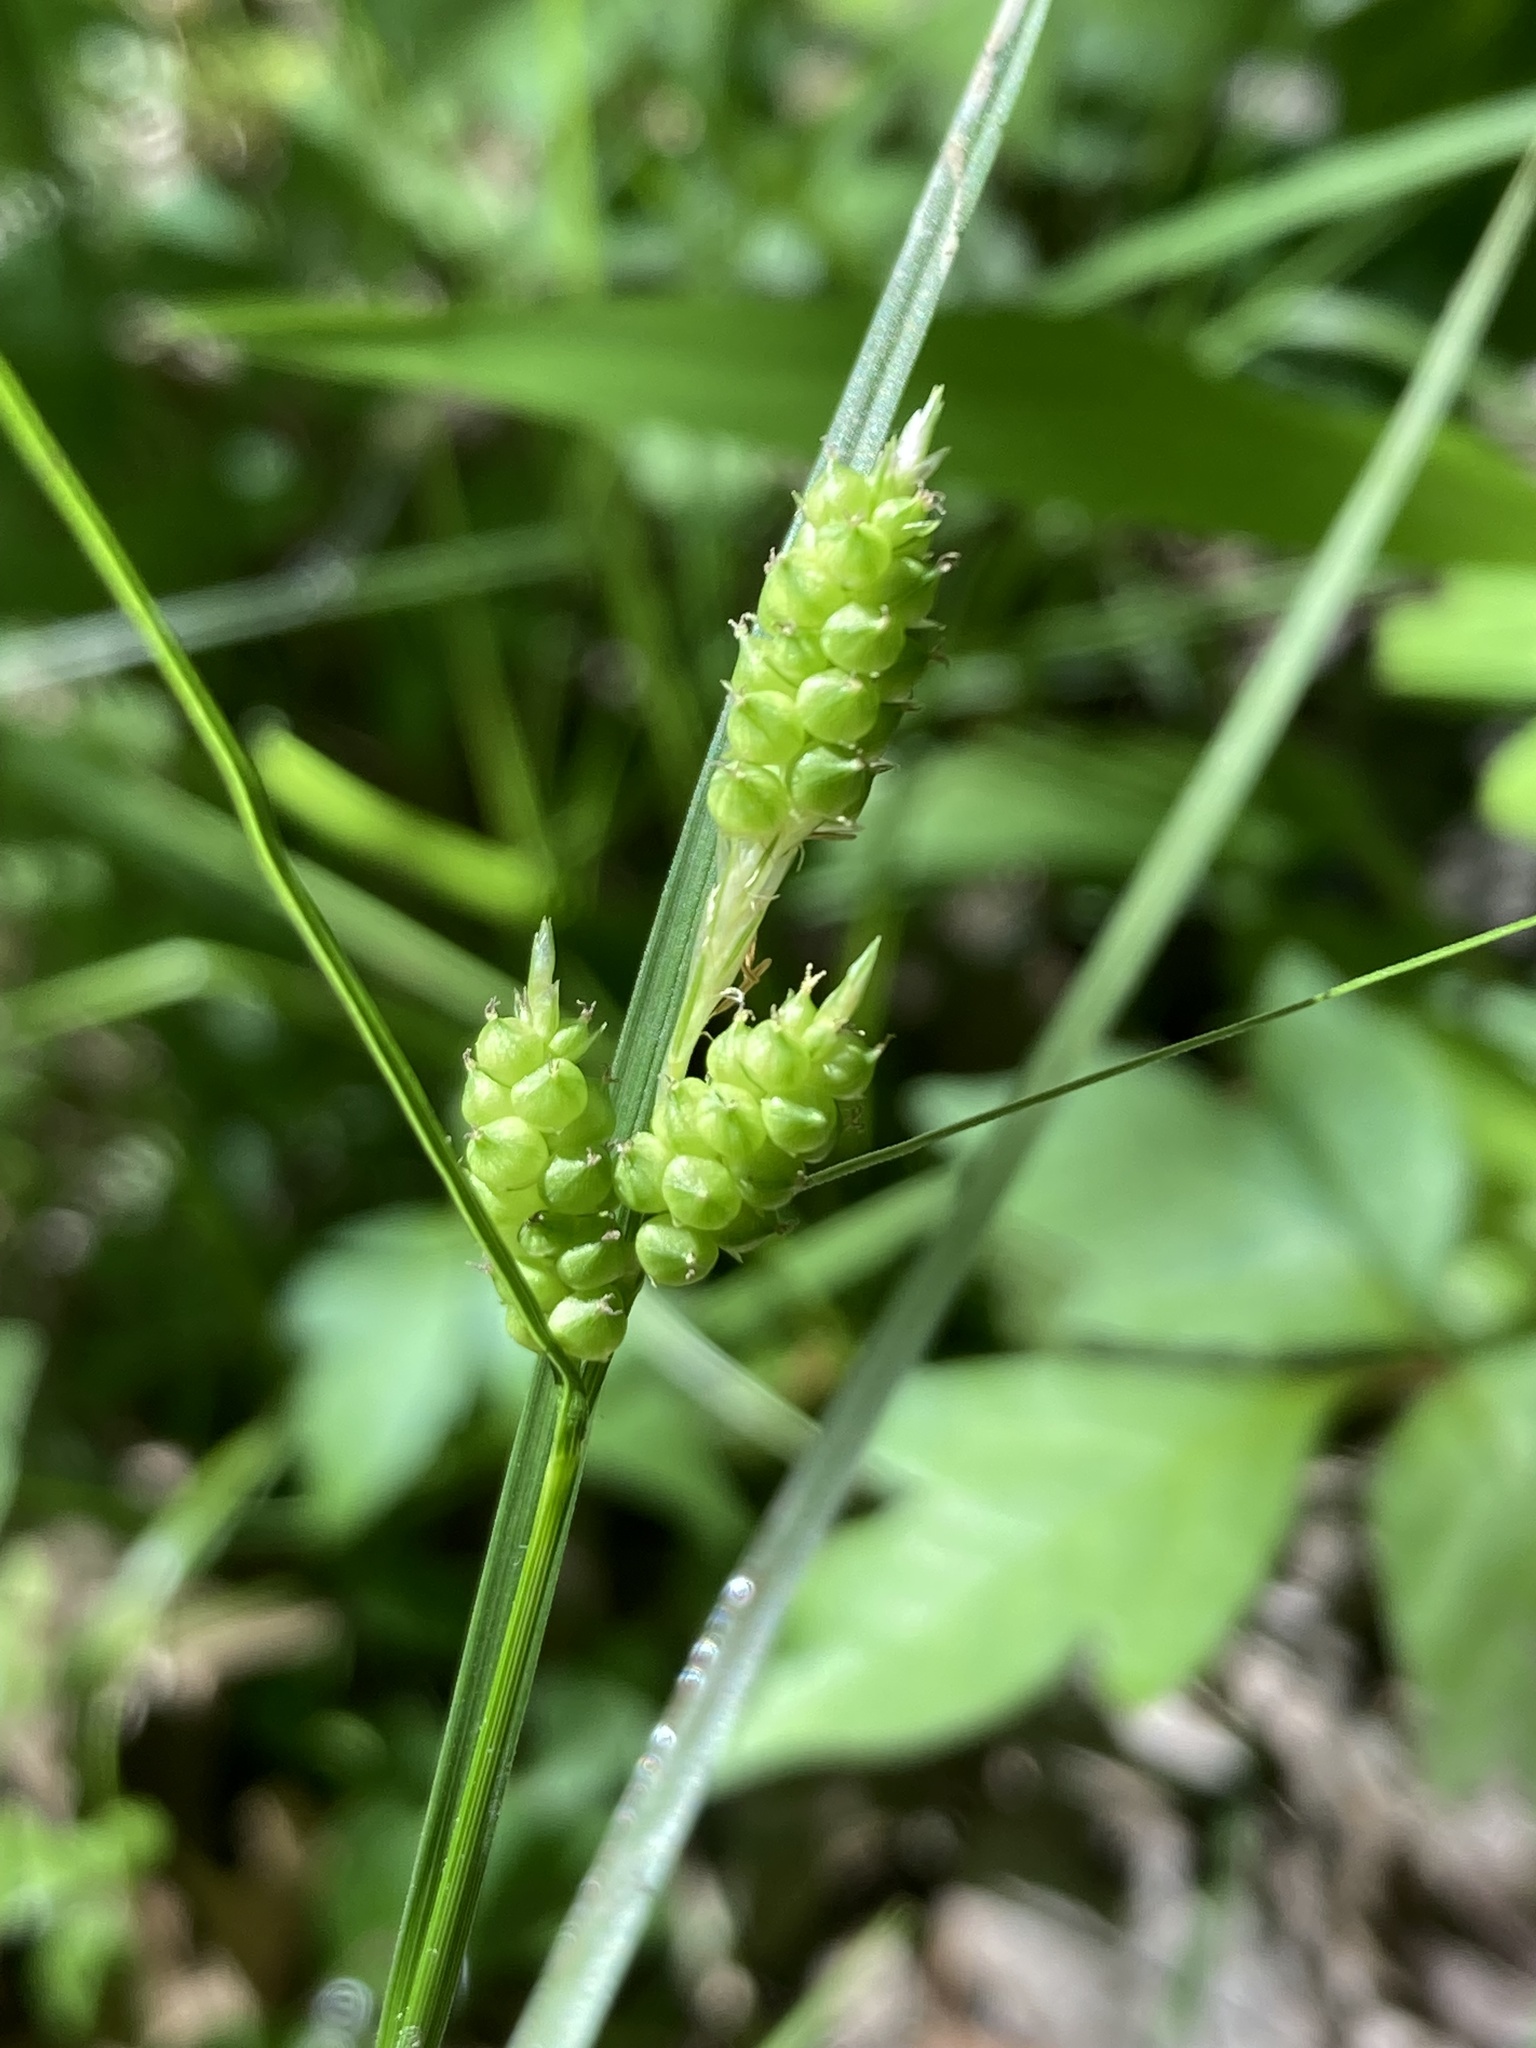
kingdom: Plantae
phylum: Tracheophyta
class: Liliopsida
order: Poales
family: Cyperaceae
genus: Carex
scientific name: Carex caroliniana
